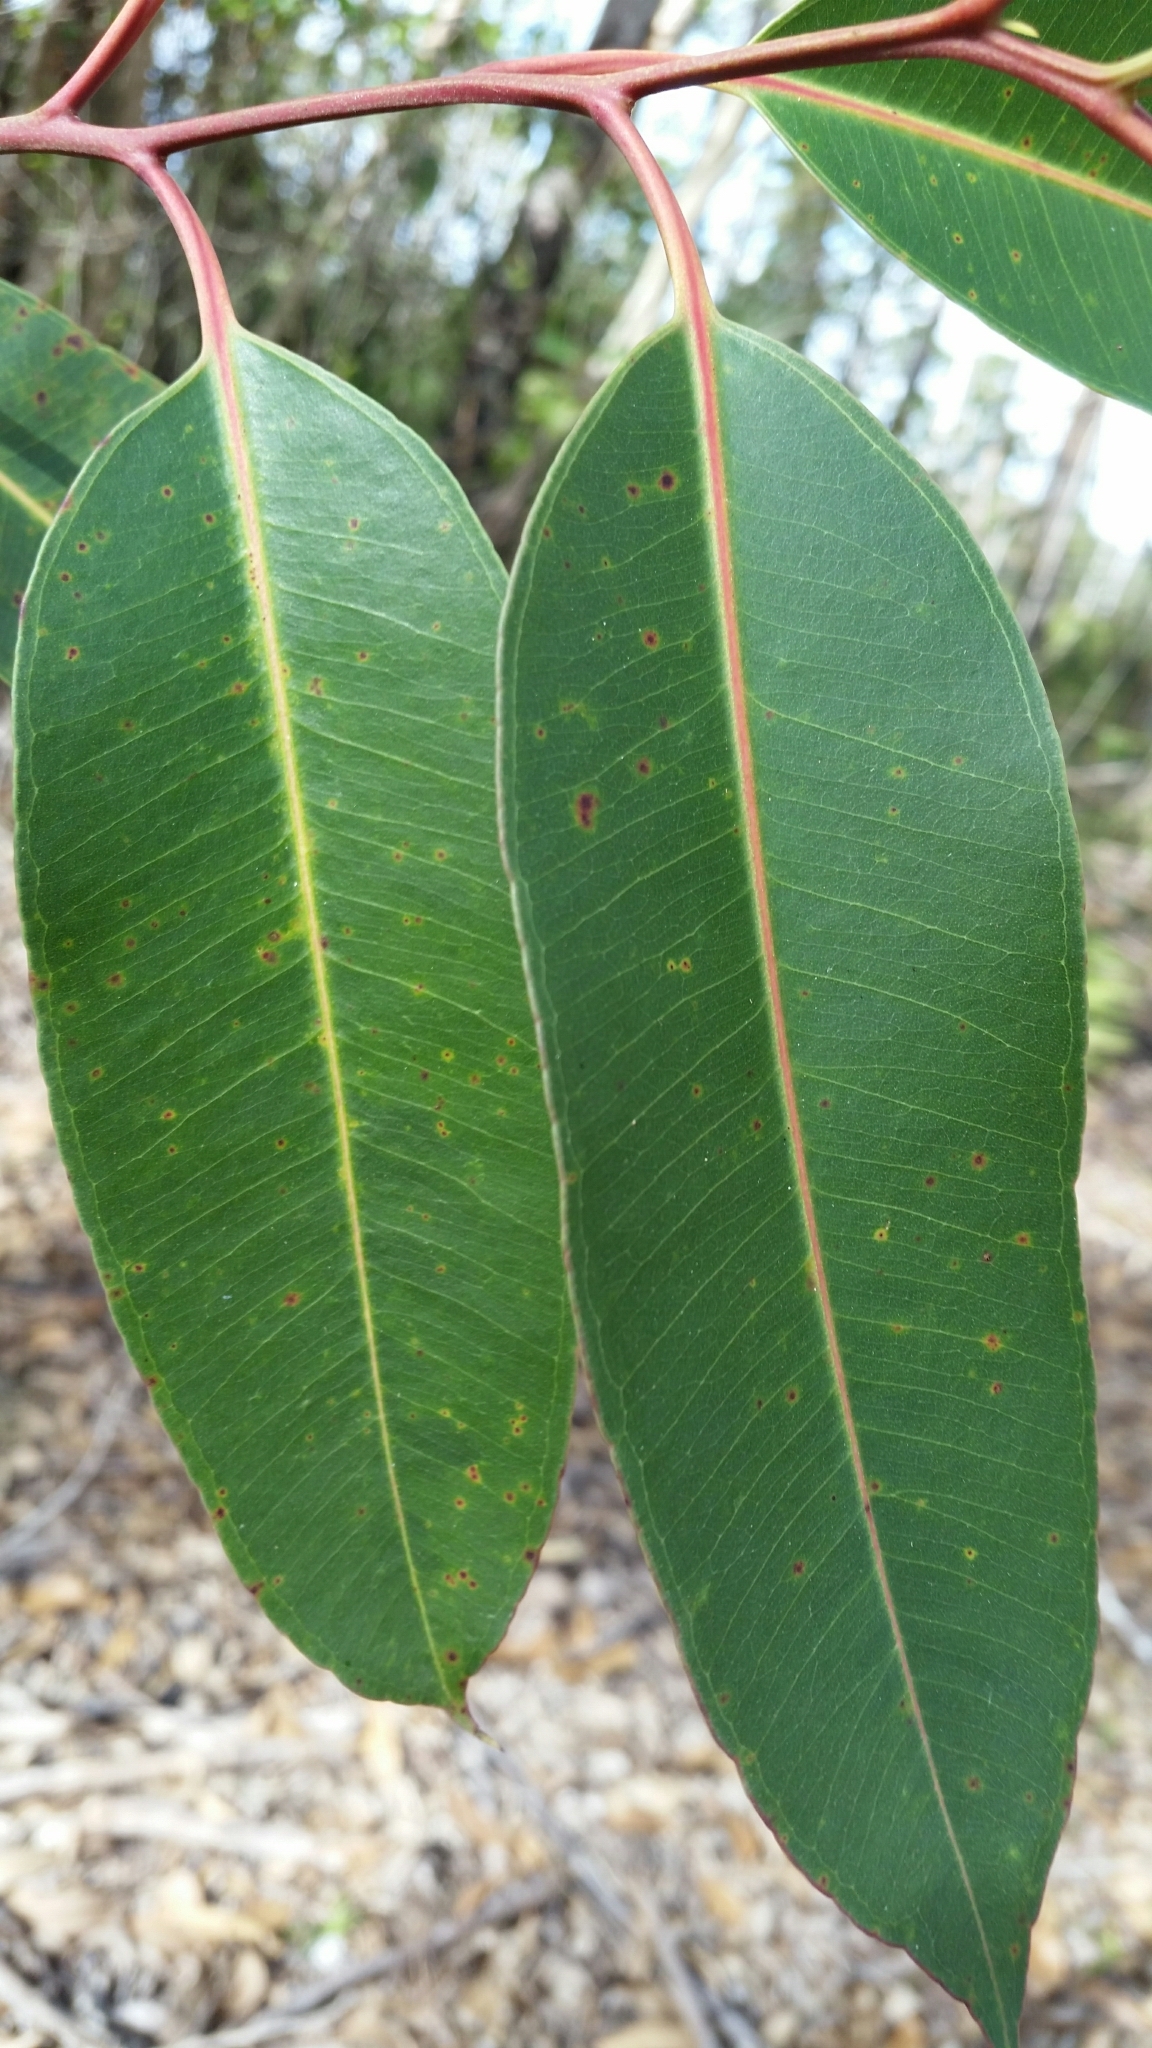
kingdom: Plantae
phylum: Tracheophyta
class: Magnoliopsida
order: Myrtales
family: Myrtaceae
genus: Eucalyptus
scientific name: Eucalyptus robusta
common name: Swampmahogany
